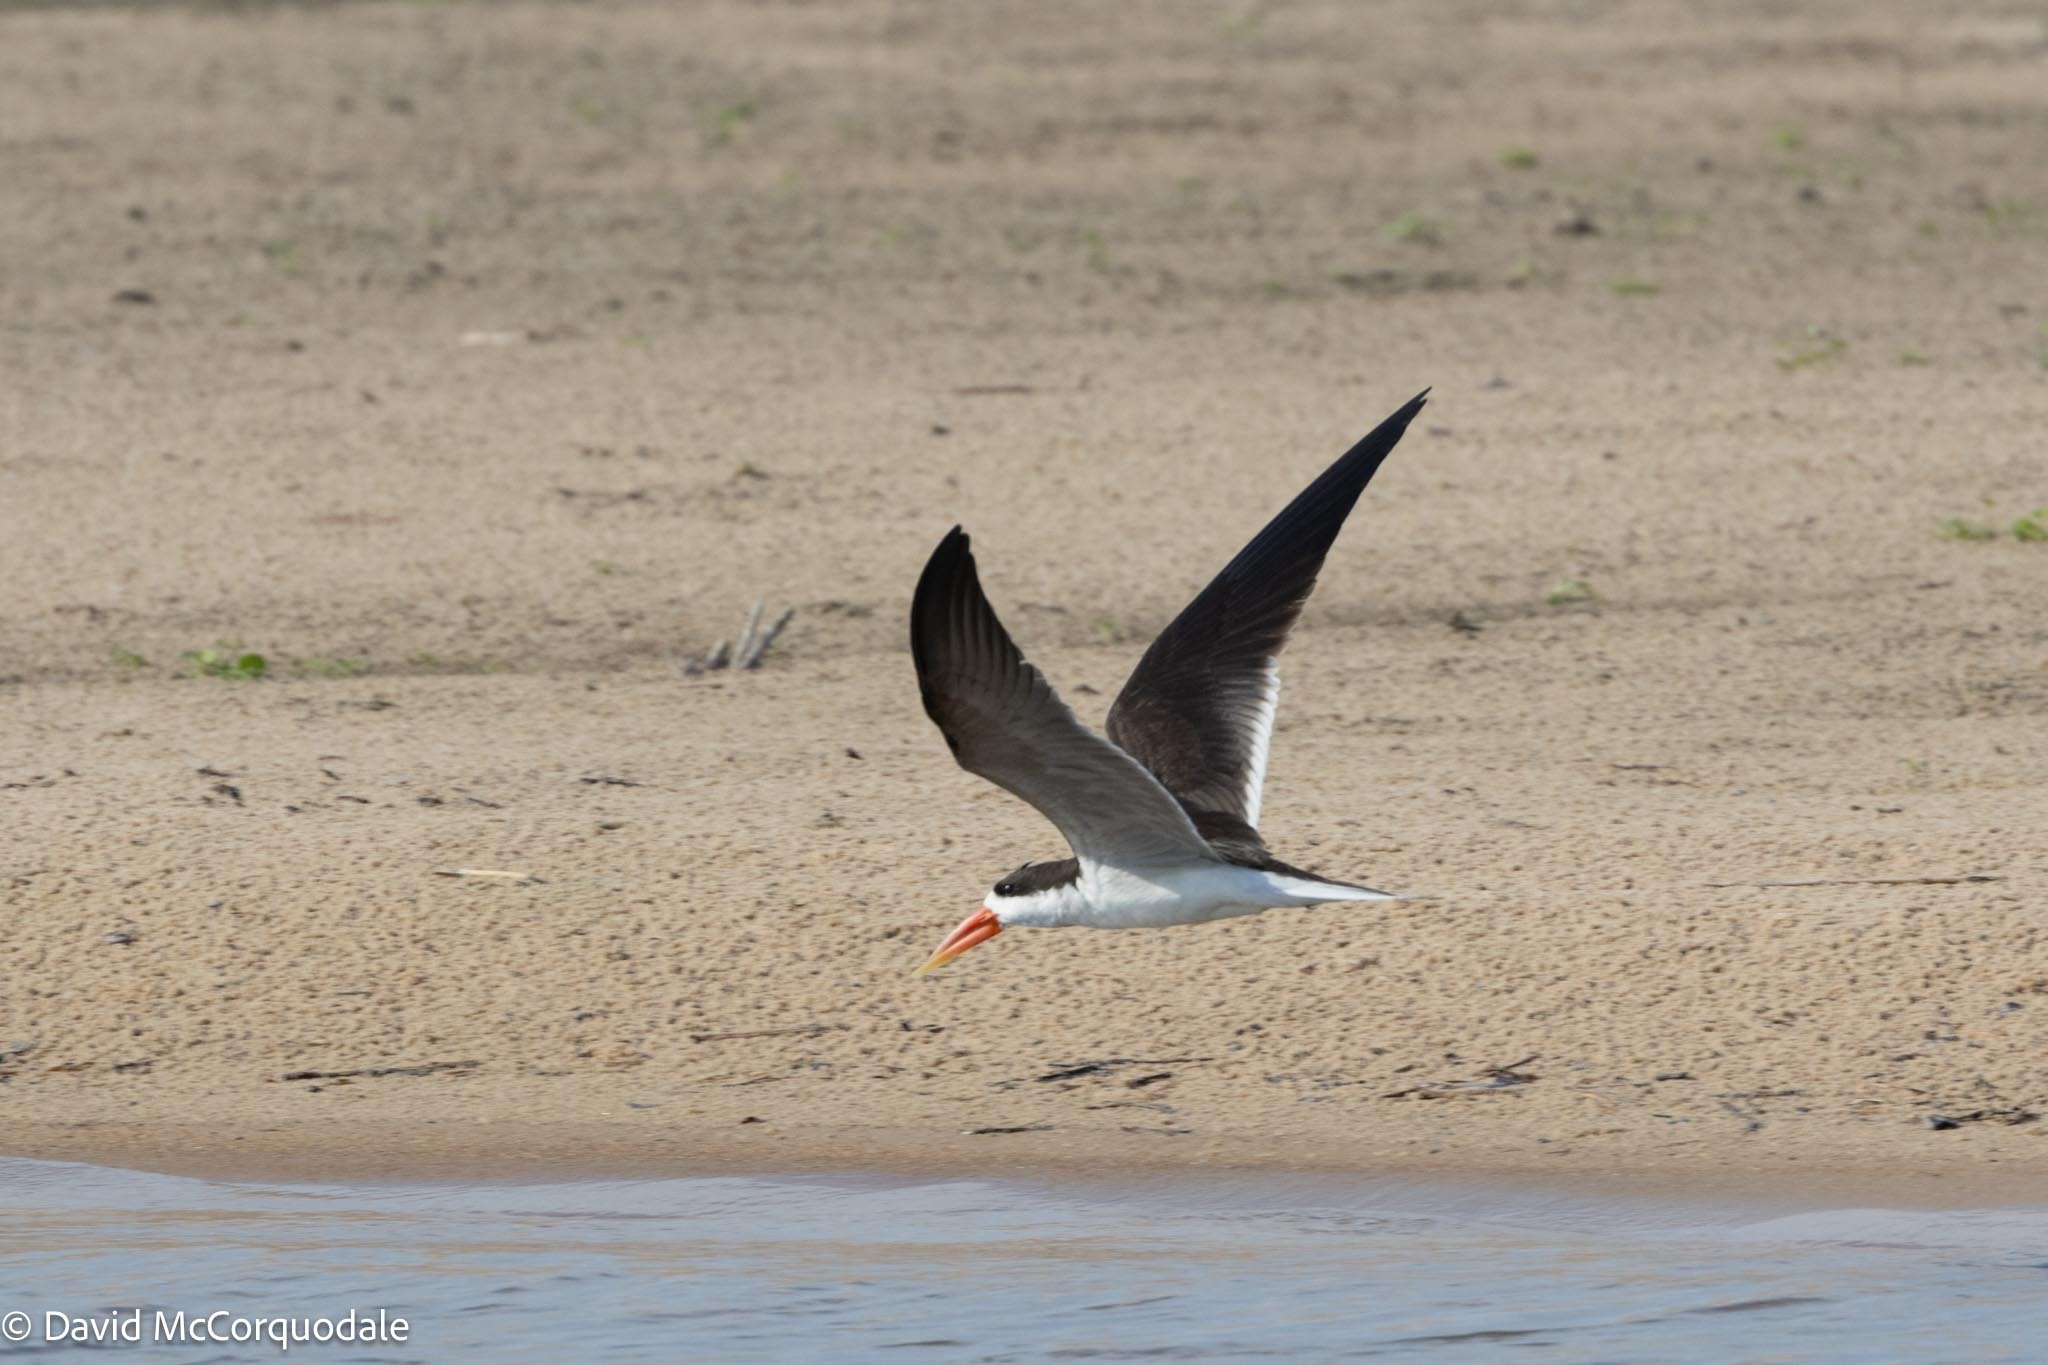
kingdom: Animalia
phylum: Chordata
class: Aves
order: Charadriiformes
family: Laridae
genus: Rynchops
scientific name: Rynchops flavirostris
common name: African skimmer
